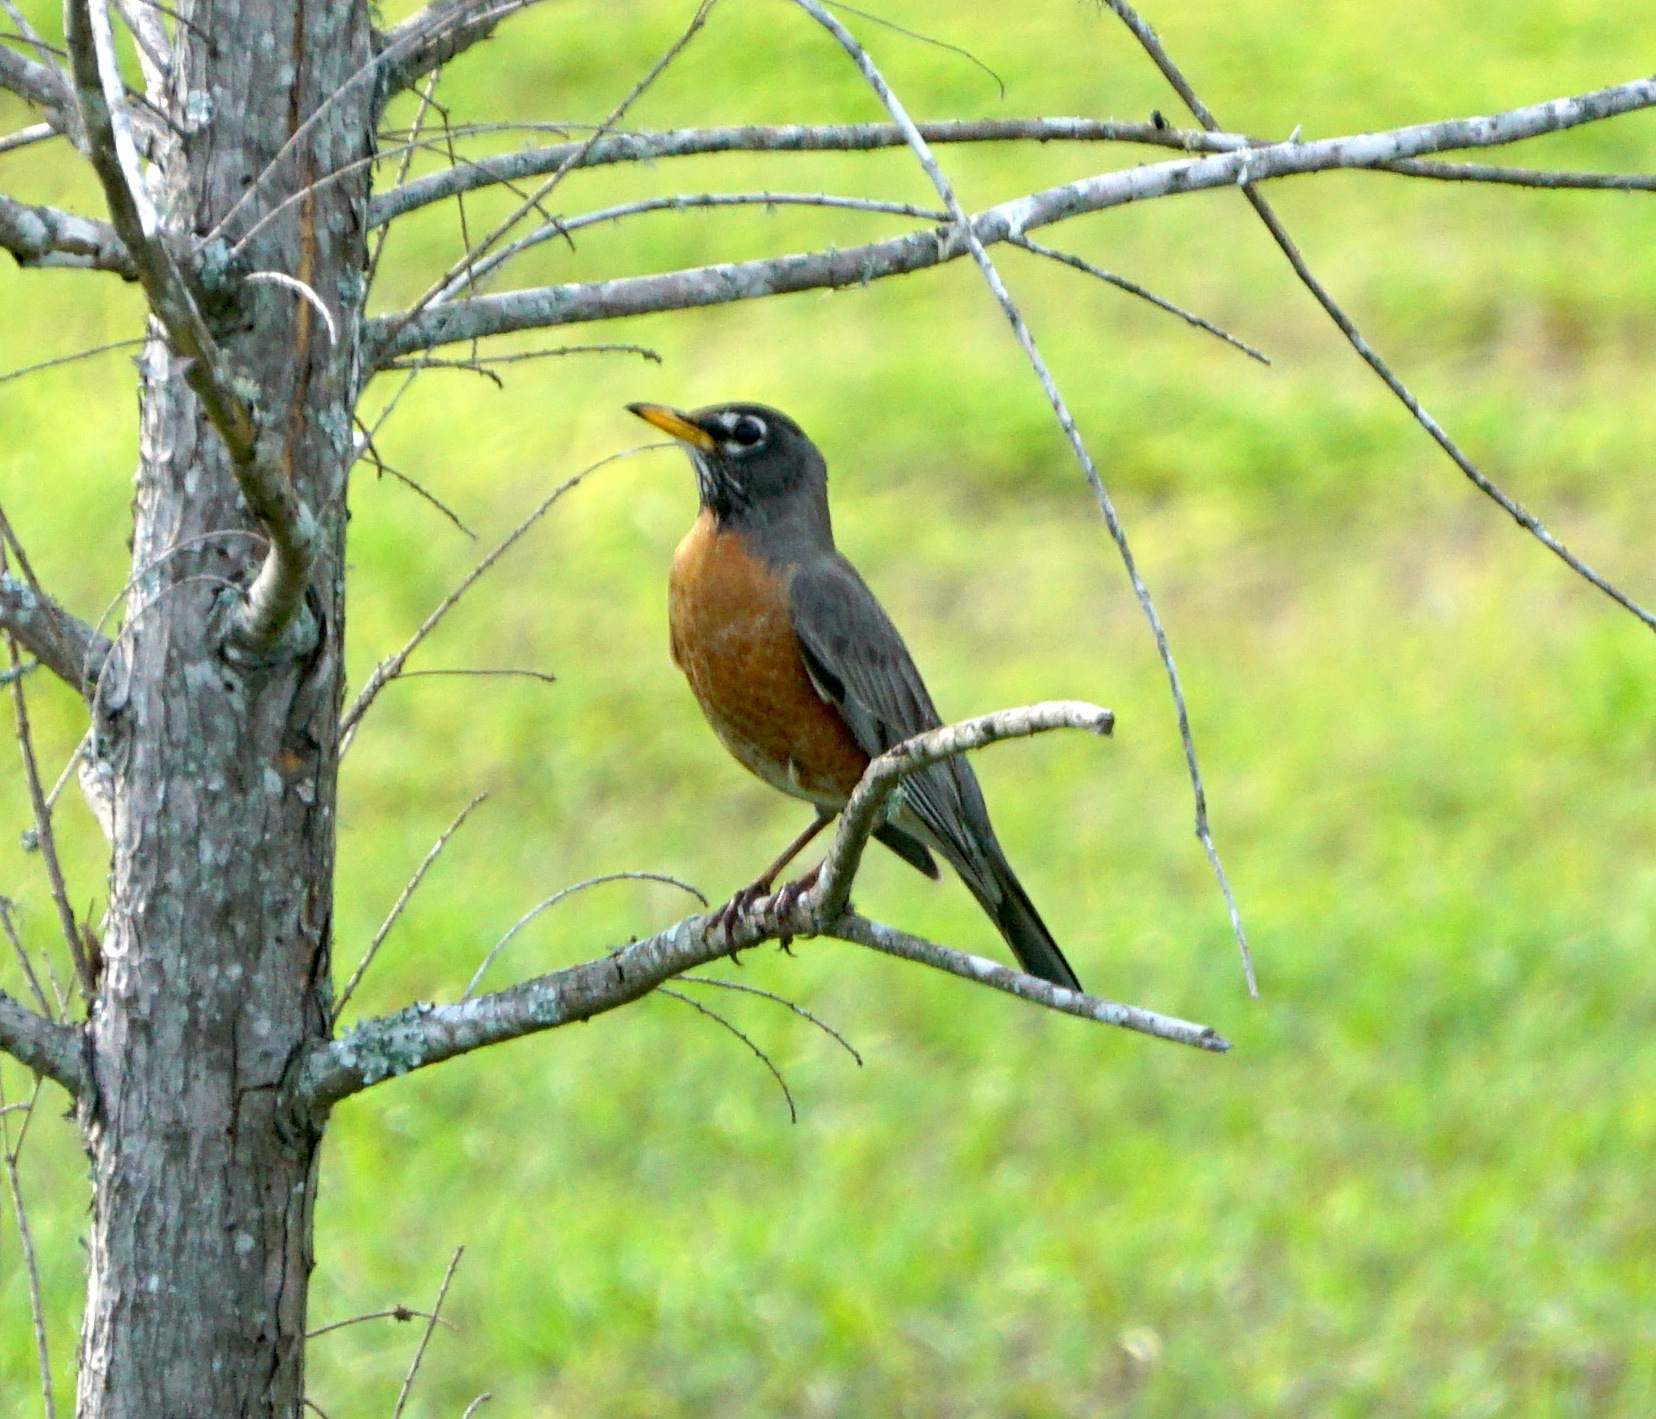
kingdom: Animalia
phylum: Chordata
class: Aves
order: Passeriformes
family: Turdidae
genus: Turdus
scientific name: Turdus migratorius
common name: American robin
